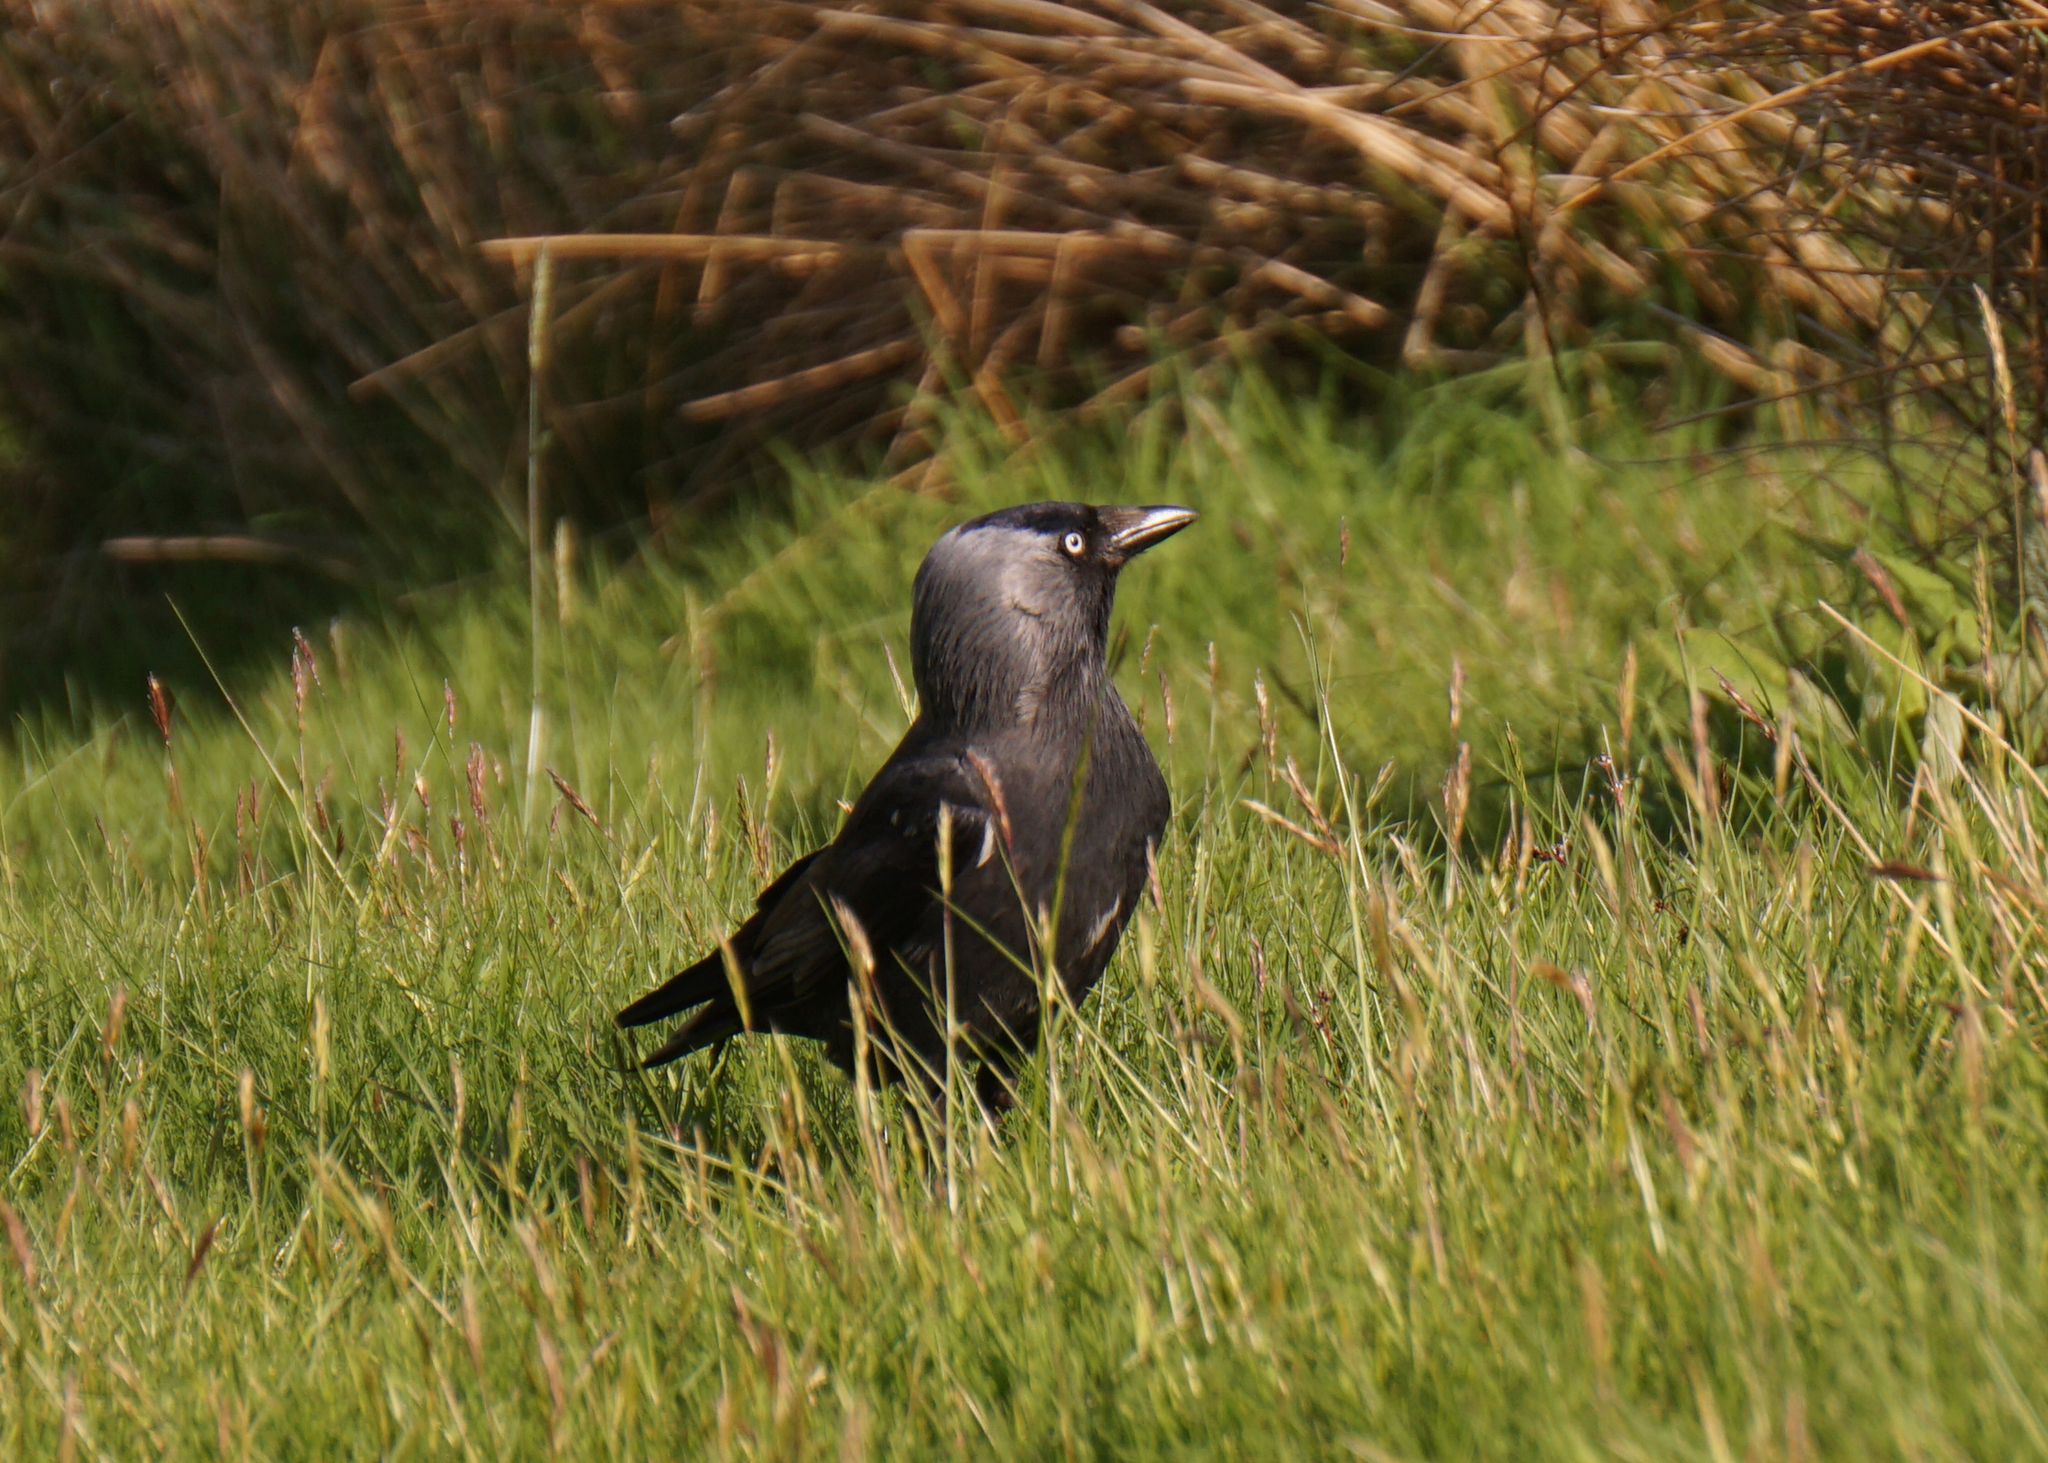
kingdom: Animalia
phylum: Chordata
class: Aves
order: Passeriformes
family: Corvidae
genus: Coloeus
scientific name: Coloeus monedula
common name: Western jackdaw
